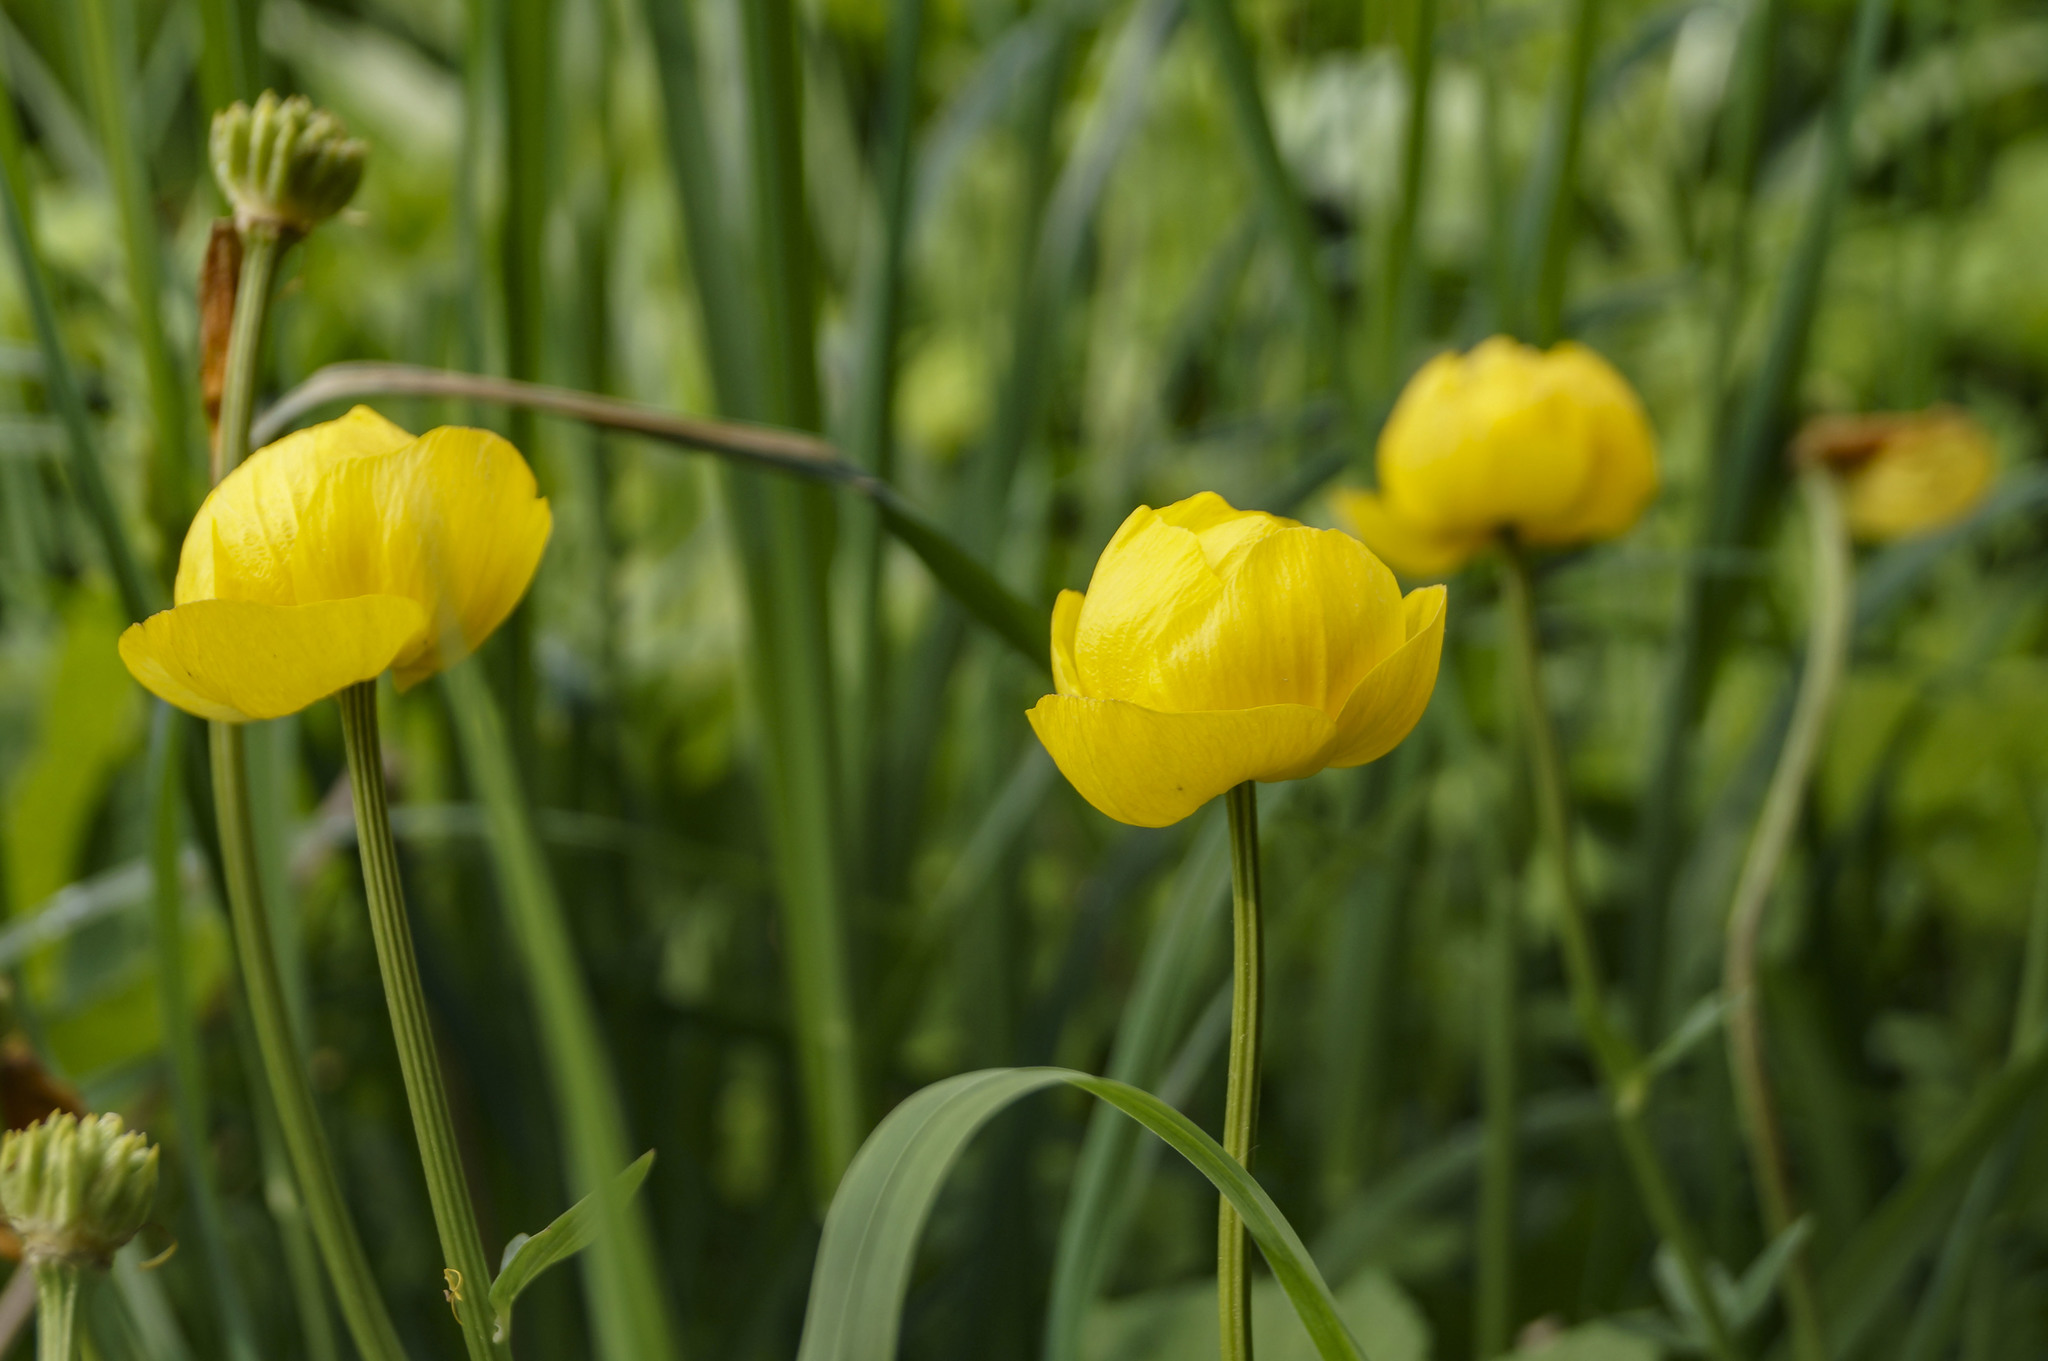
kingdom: Plantae
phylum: Tracheophyta
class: Magnoliopsida
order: Ranunculales
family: Ranunculaceae
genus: Trollius
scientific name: Trollius europaeus
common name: European globeflower
